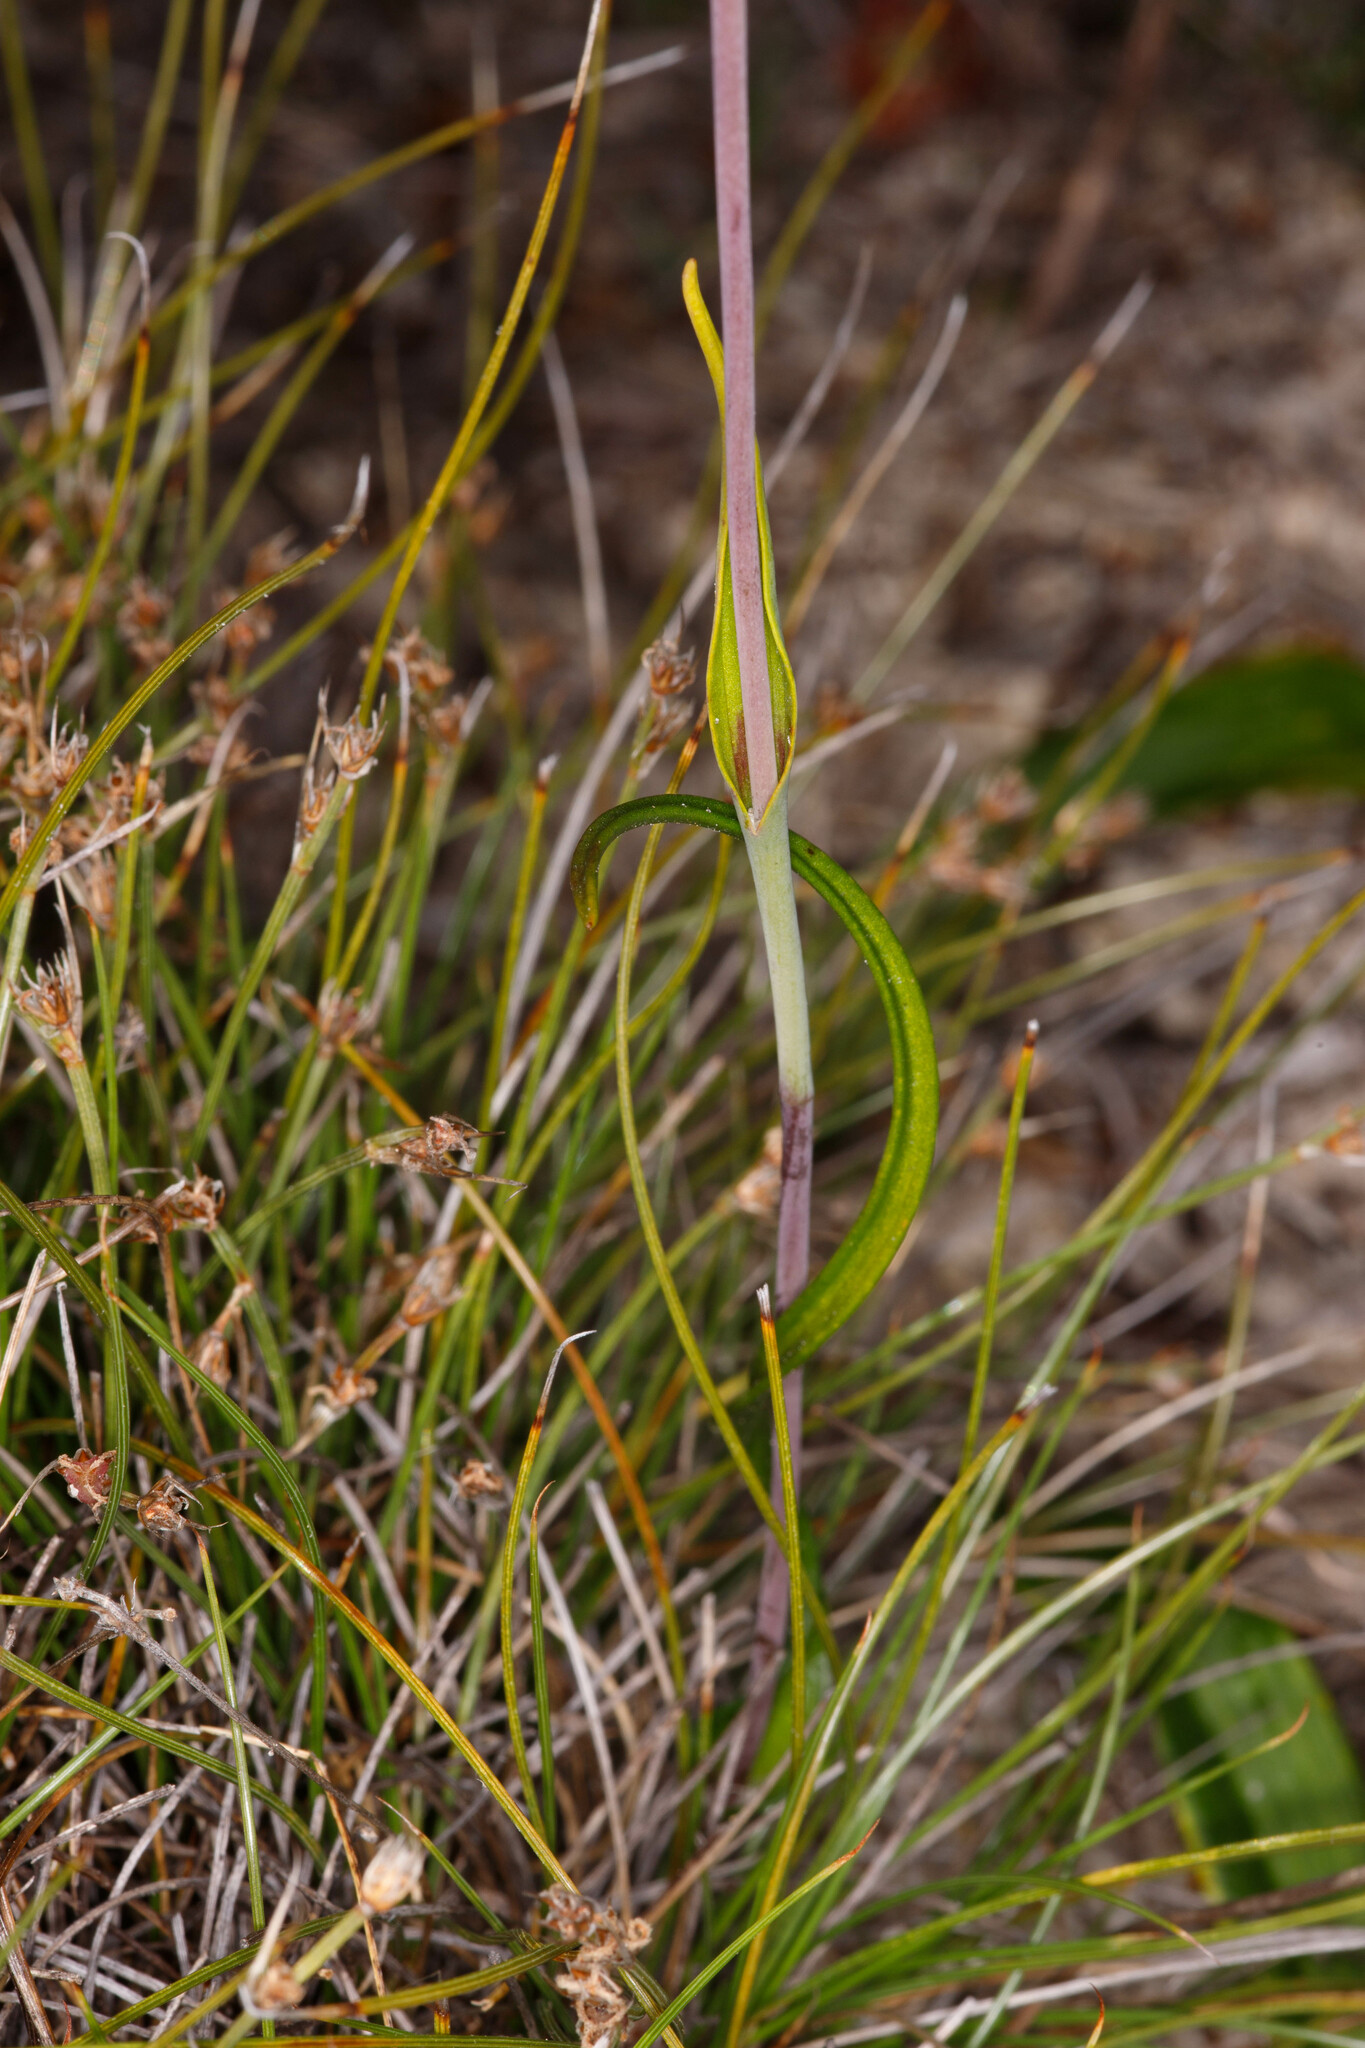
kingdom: Plantae
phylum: Tracheophyta
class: Liliopsida
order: Asparagales
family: Orchidaceae
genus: Thelymitra
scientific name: Thelymitra pulcherrima
